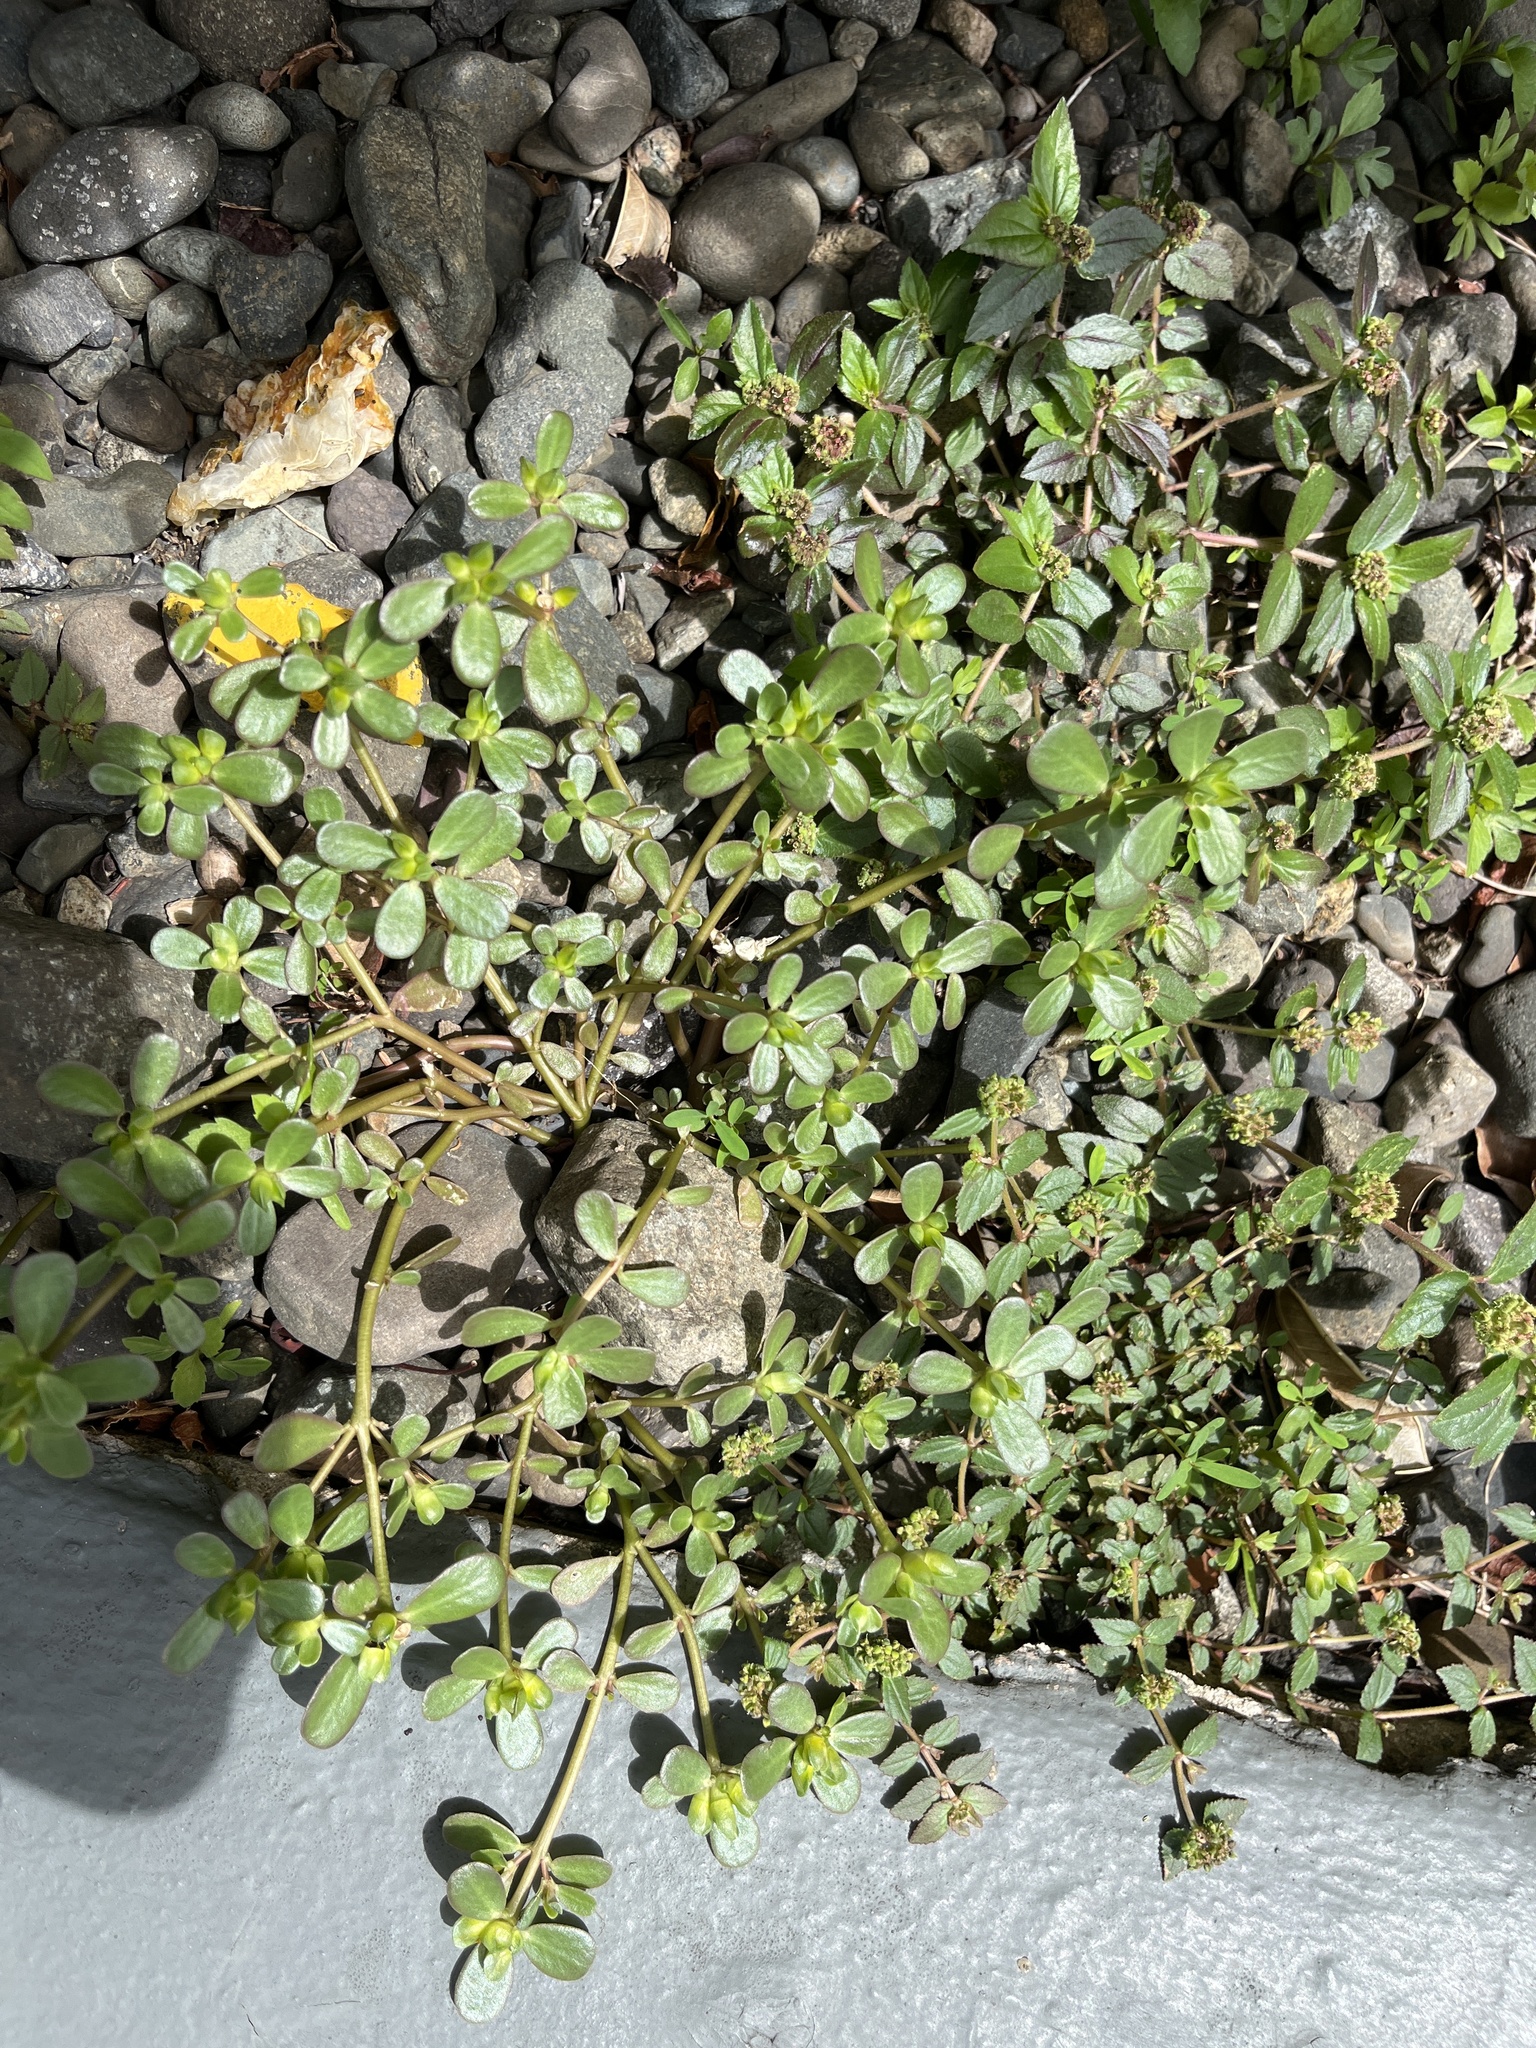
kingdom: Plantae
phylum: Tracheophyta
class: Magnoliopsida
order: Caryophyllales
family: Portulacaceae
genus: Portulaca
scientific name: Portulaca oleracea
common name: Common purslane
